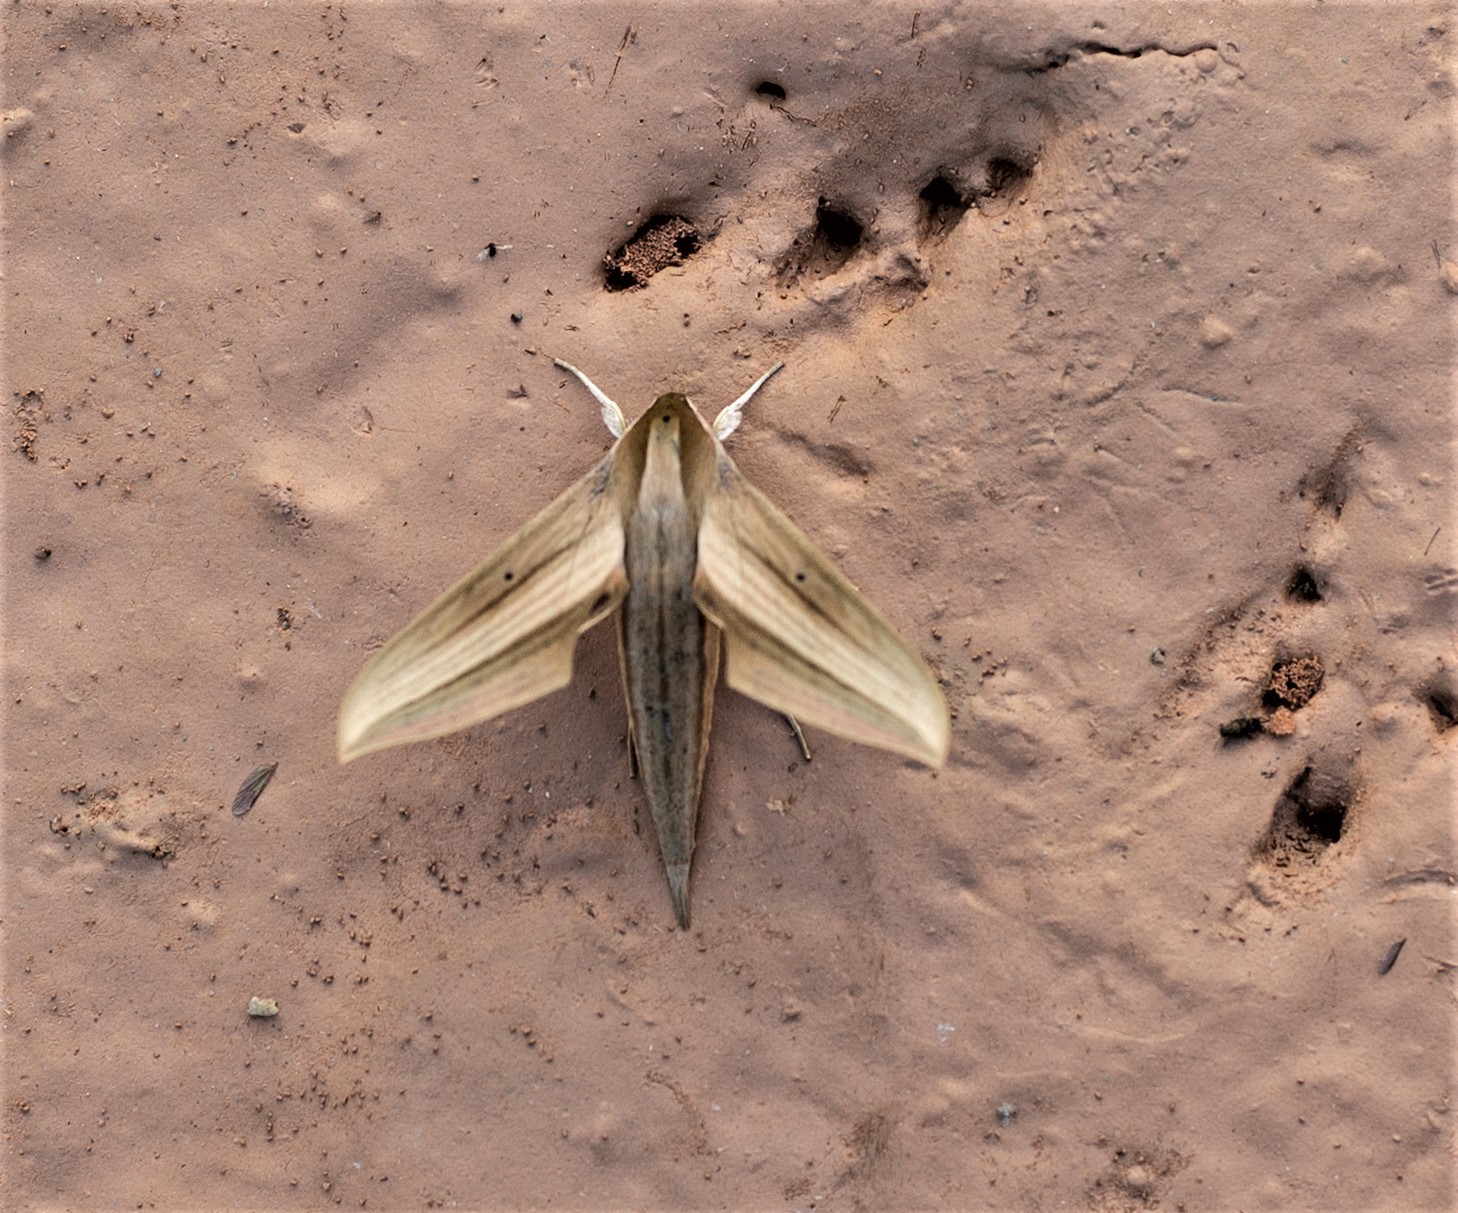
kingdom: Animalia
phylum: Arthropoda
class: Insecta
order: Lepidoptera
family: Sphingidae
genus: Xylophanes
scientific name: Xylophanes loelia
